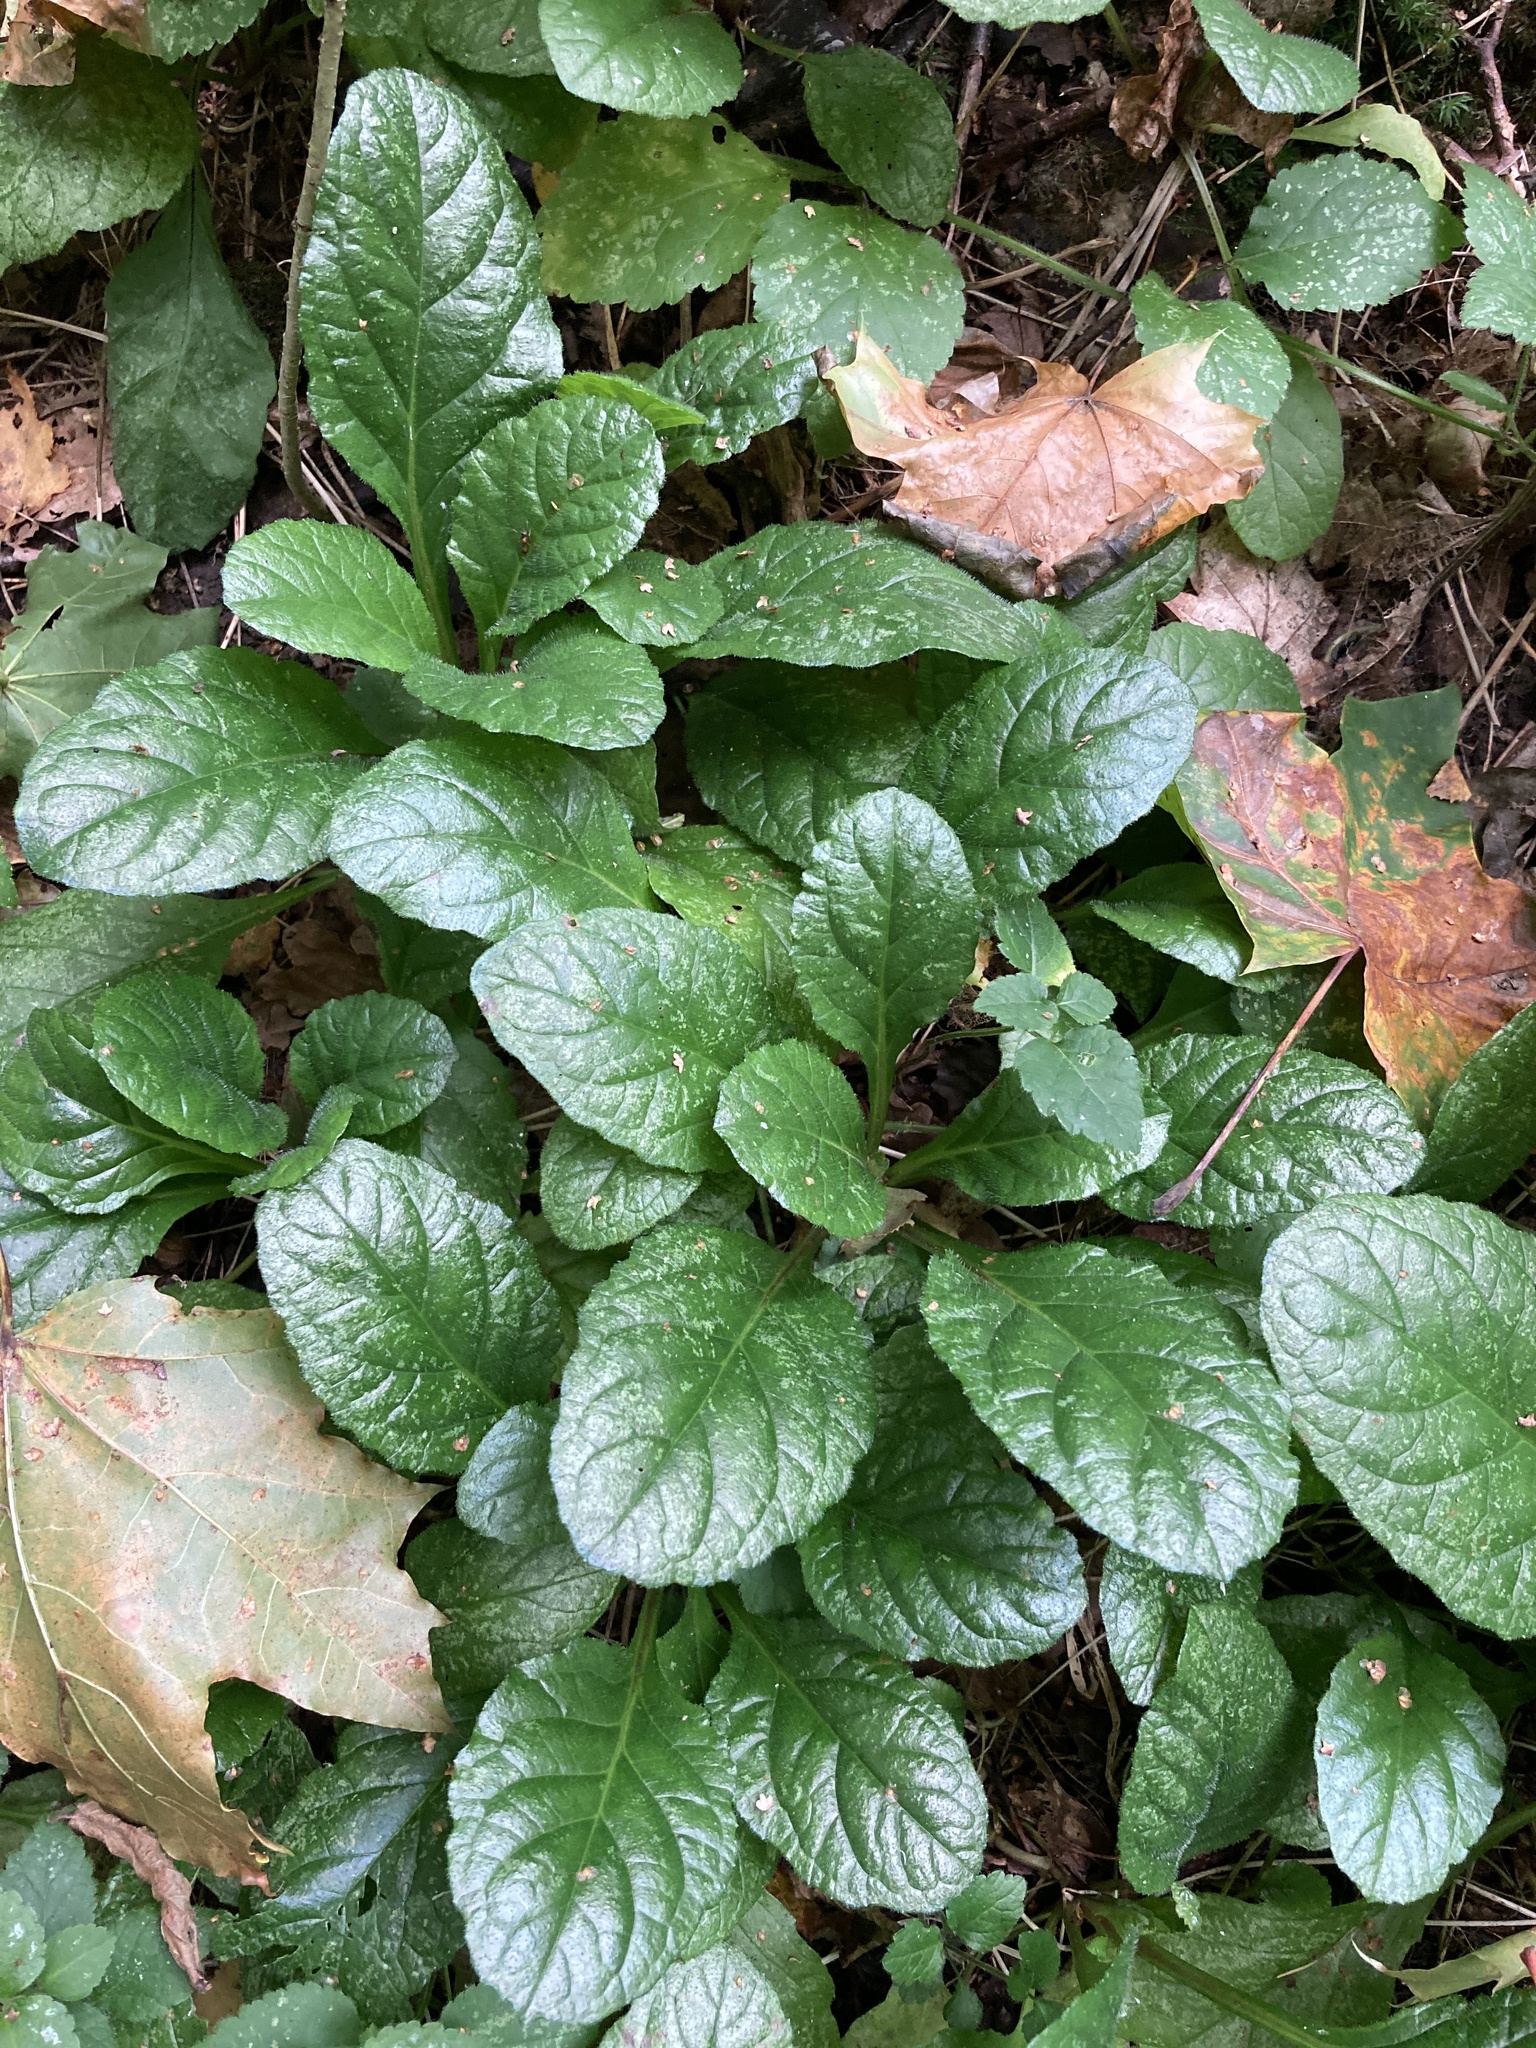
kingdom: Plantae
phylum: Tracheophyta
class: Magnoliopsida
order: Lamiales
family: Lamiaceae
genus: Ajuga
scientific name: Ajuga reptans
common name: Bugle
